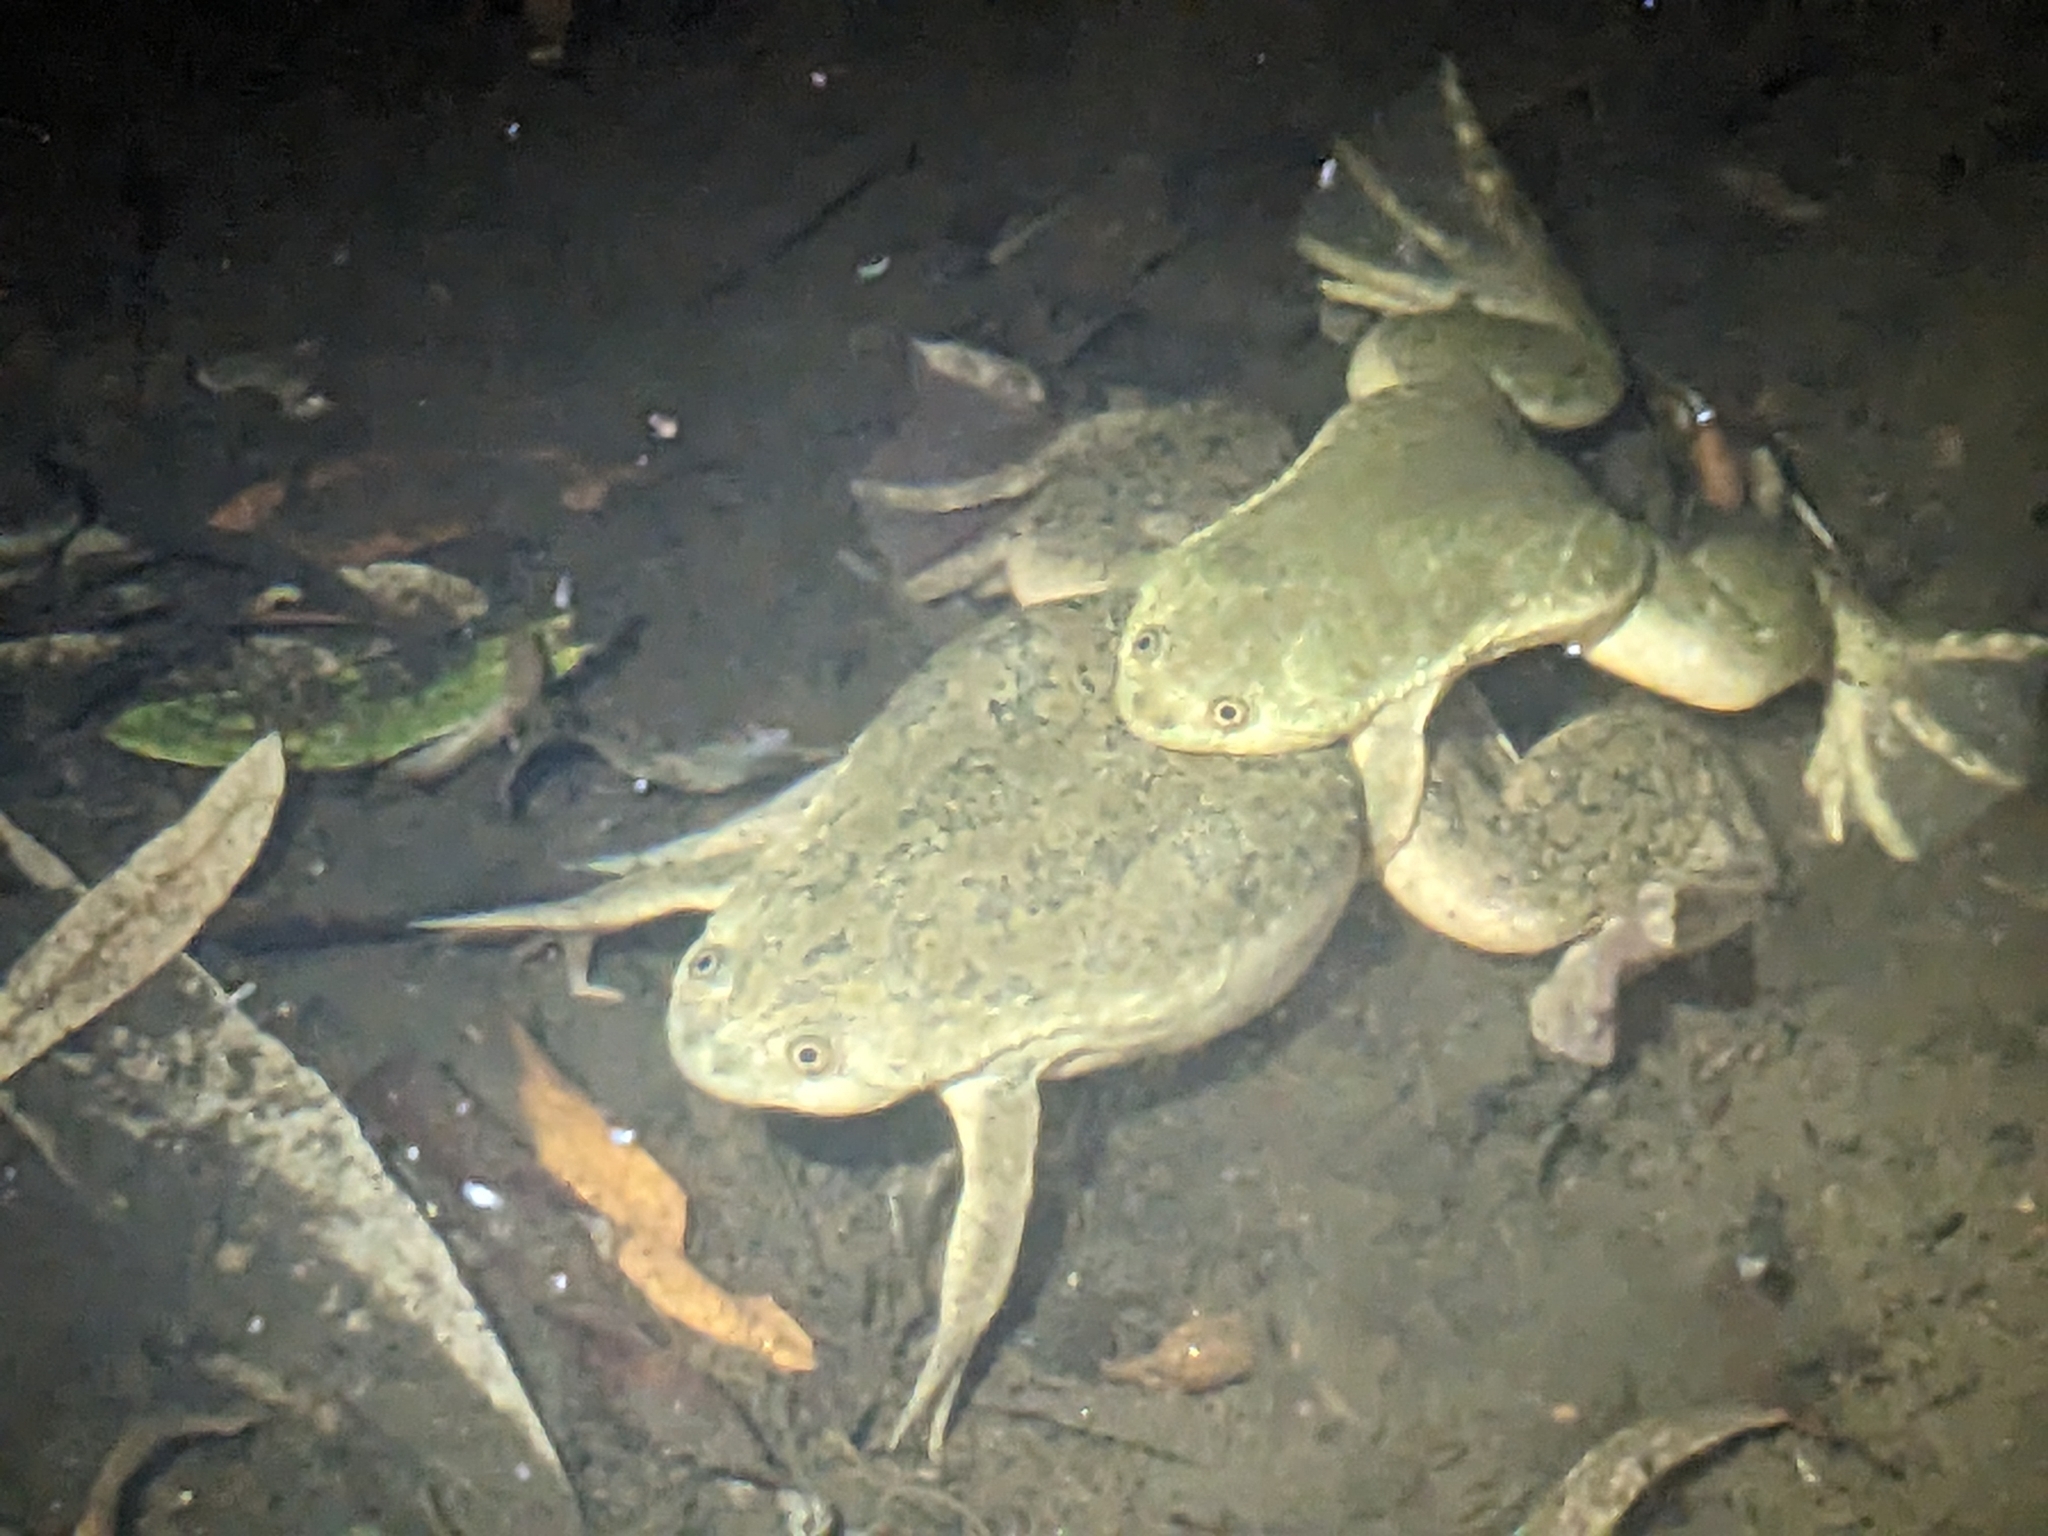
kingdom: Animalia
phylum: Chordata
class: Amphibia
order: Anura
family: Pipidae
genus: Xenopus
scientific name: Xenopus laevis
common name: African clawed frog
